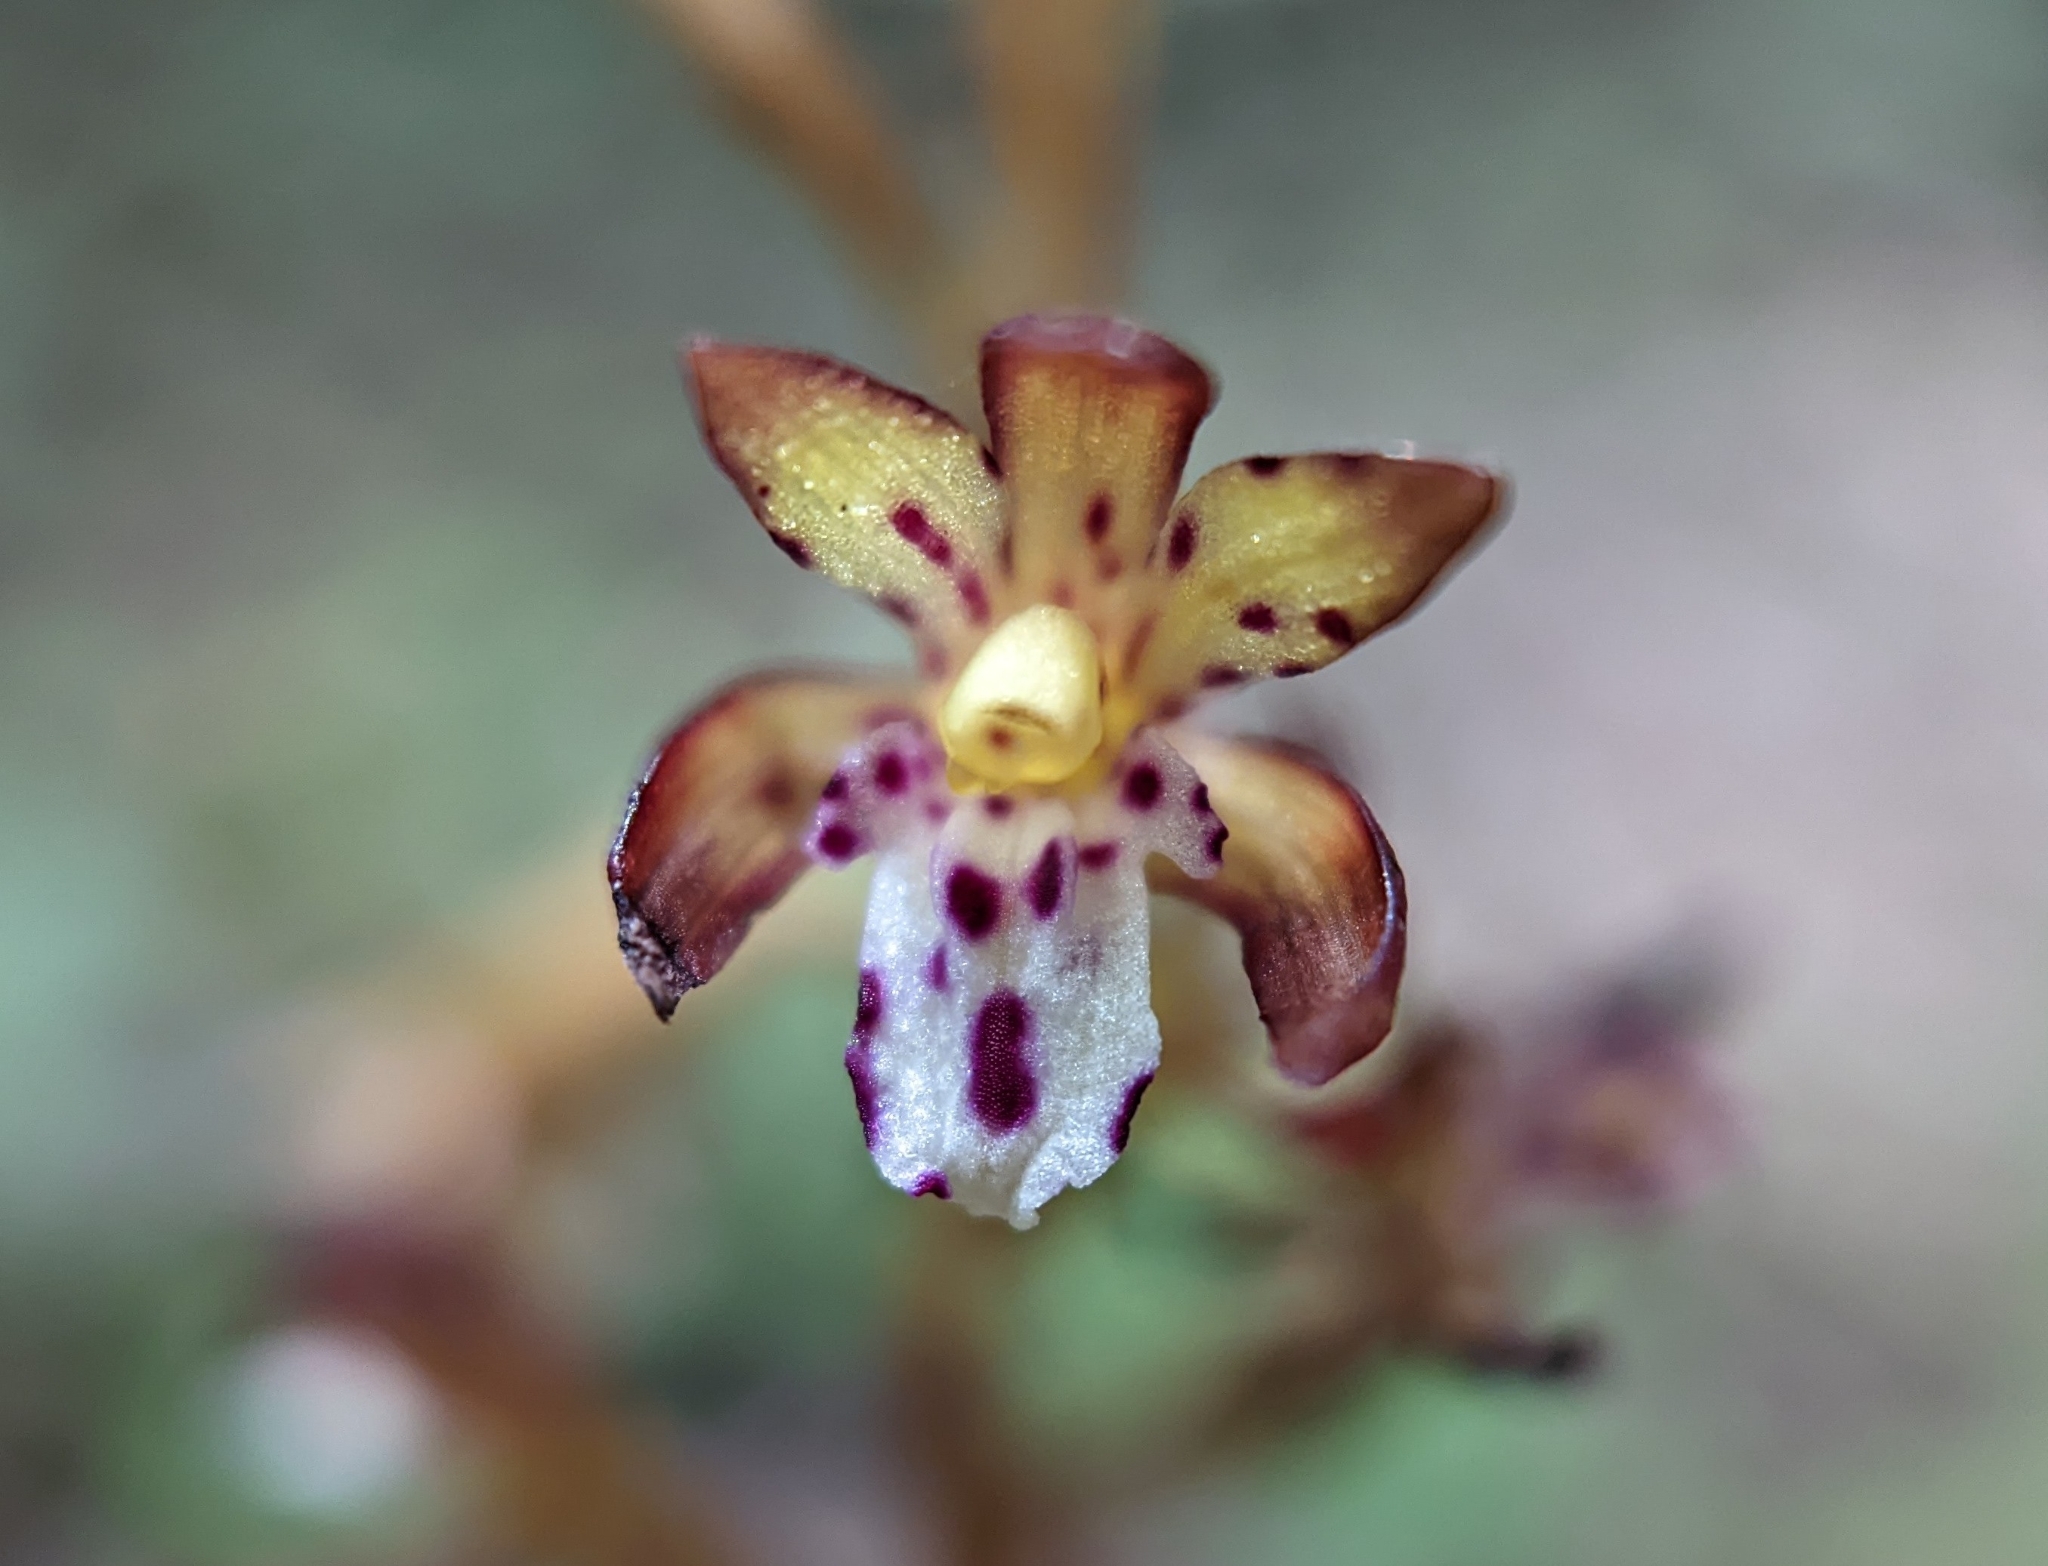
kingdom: Plantae
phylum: Tracheophyta
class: Liliopsida
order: Asparagales
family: Orchidaceae
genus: Corallorhiza
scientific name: Corallorhiza maculata
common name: Spotted coralroot
